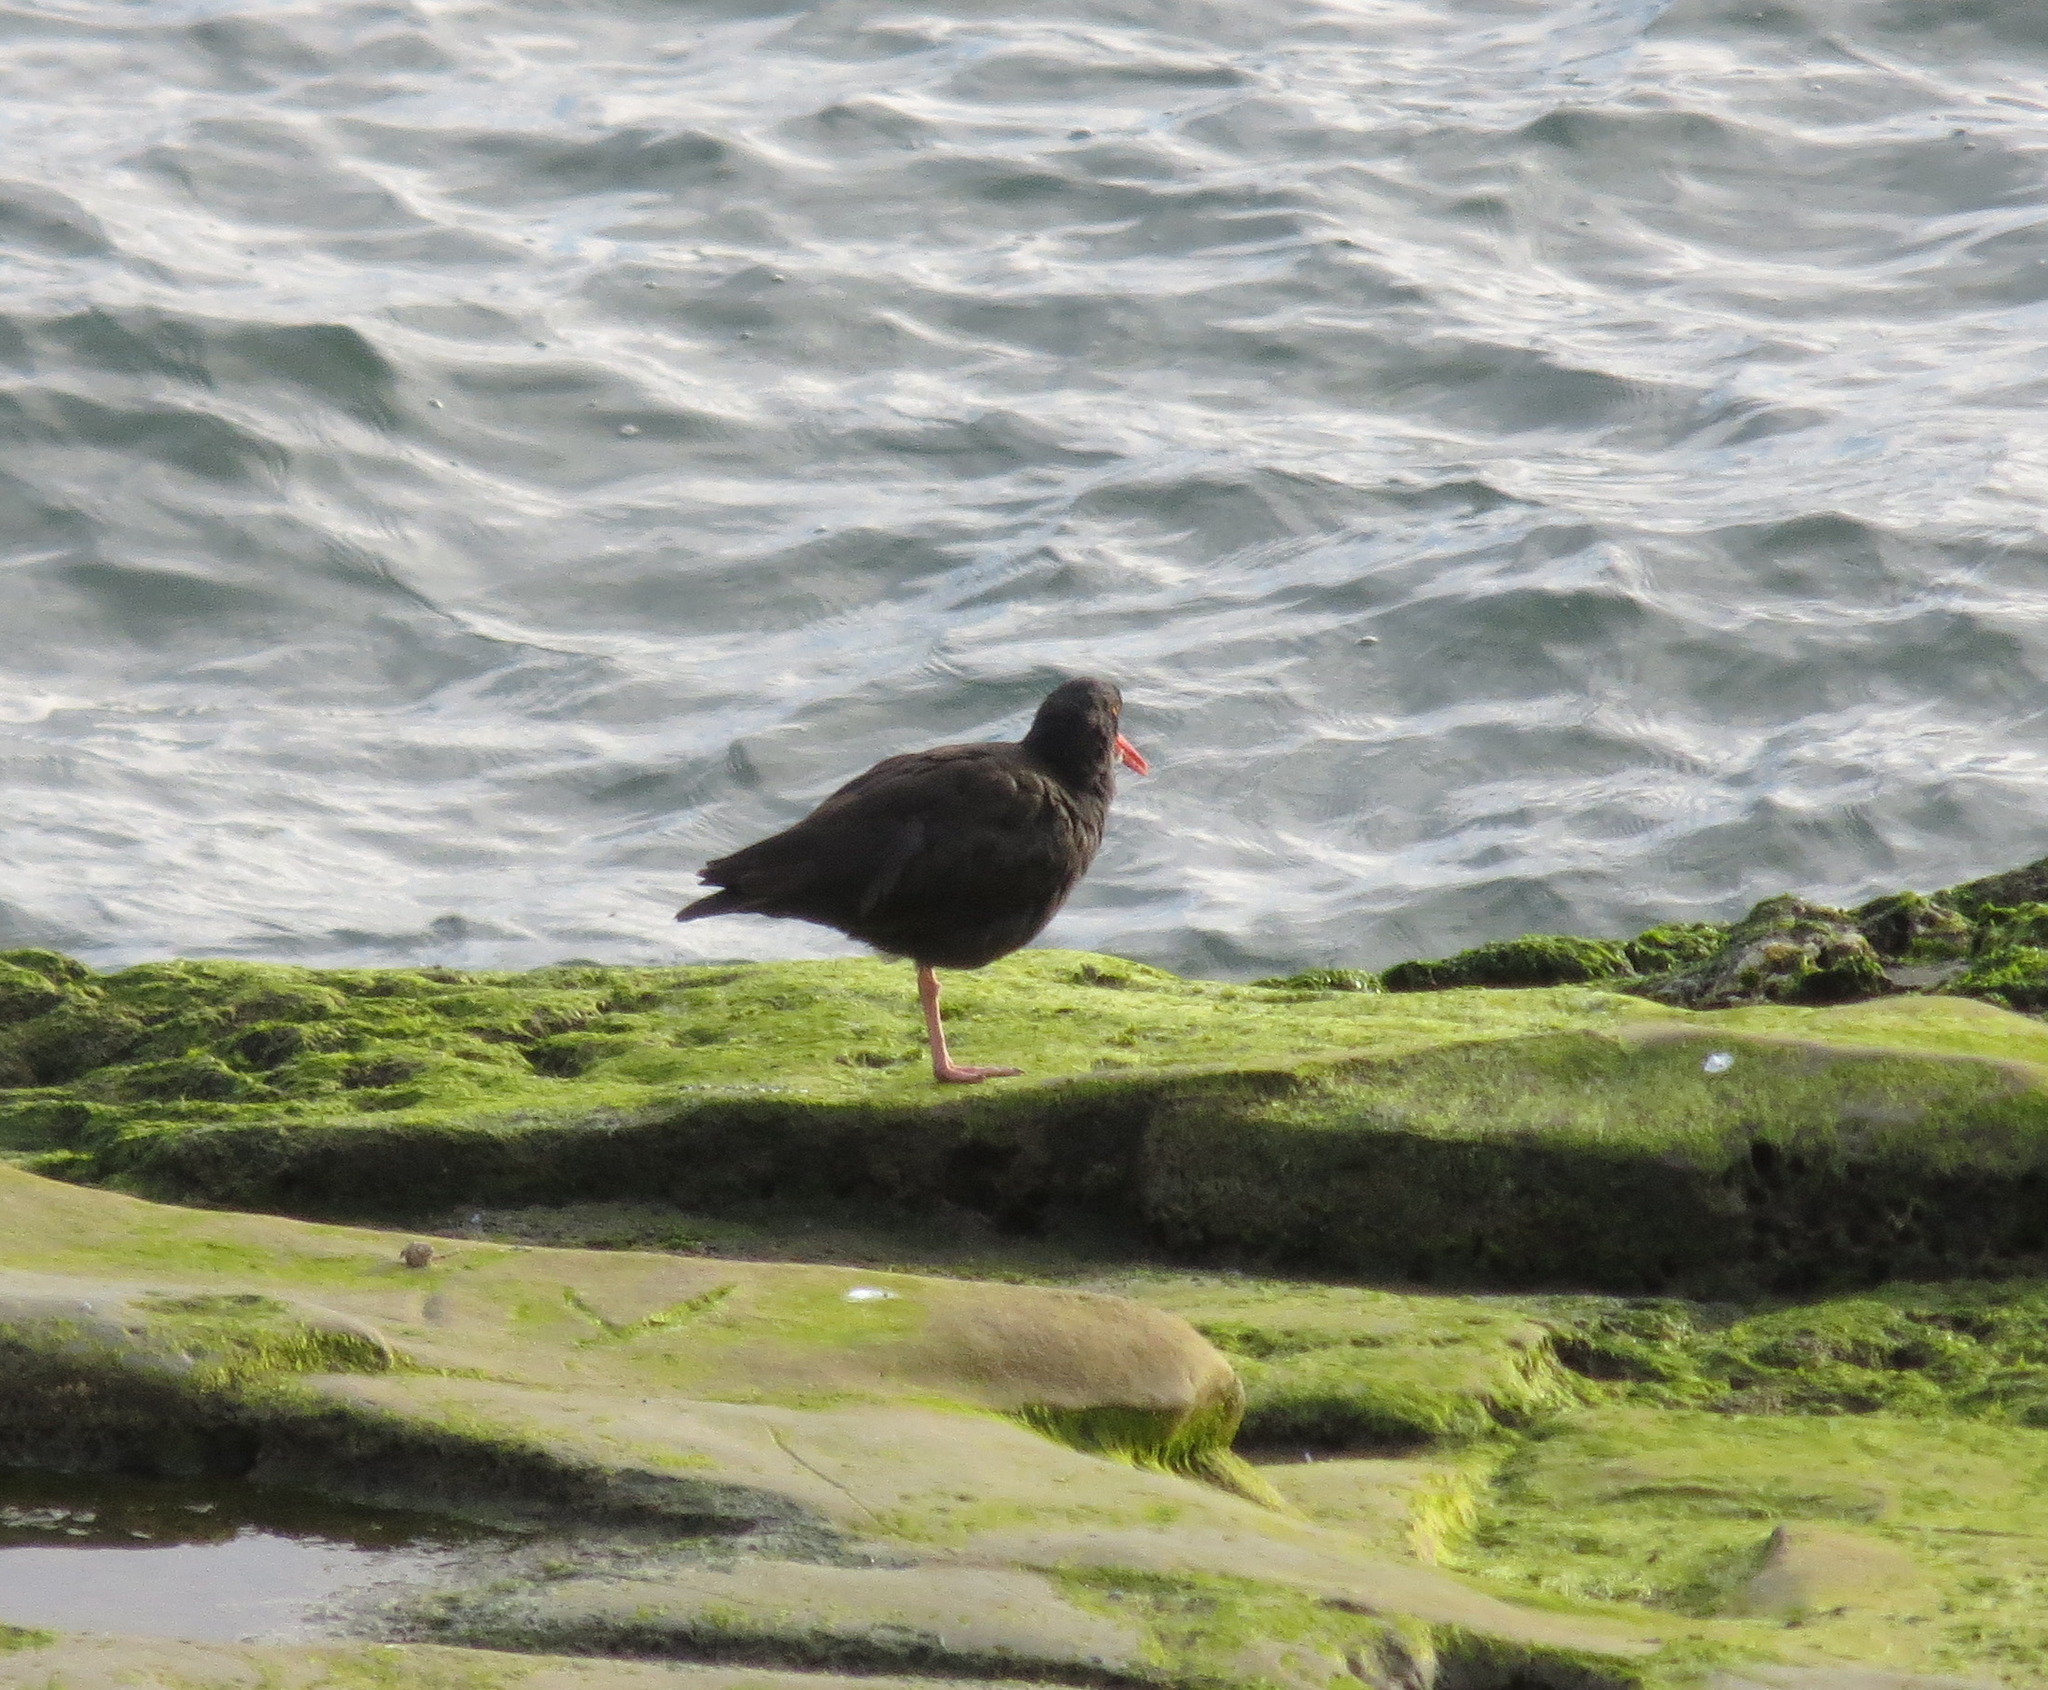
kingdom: Animalia
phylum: Chordata
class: Aves
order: Charadriiformes
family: Haematopodidae
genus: Haematopus
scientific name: Haematopus bachmani
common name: Black oystercatcher
